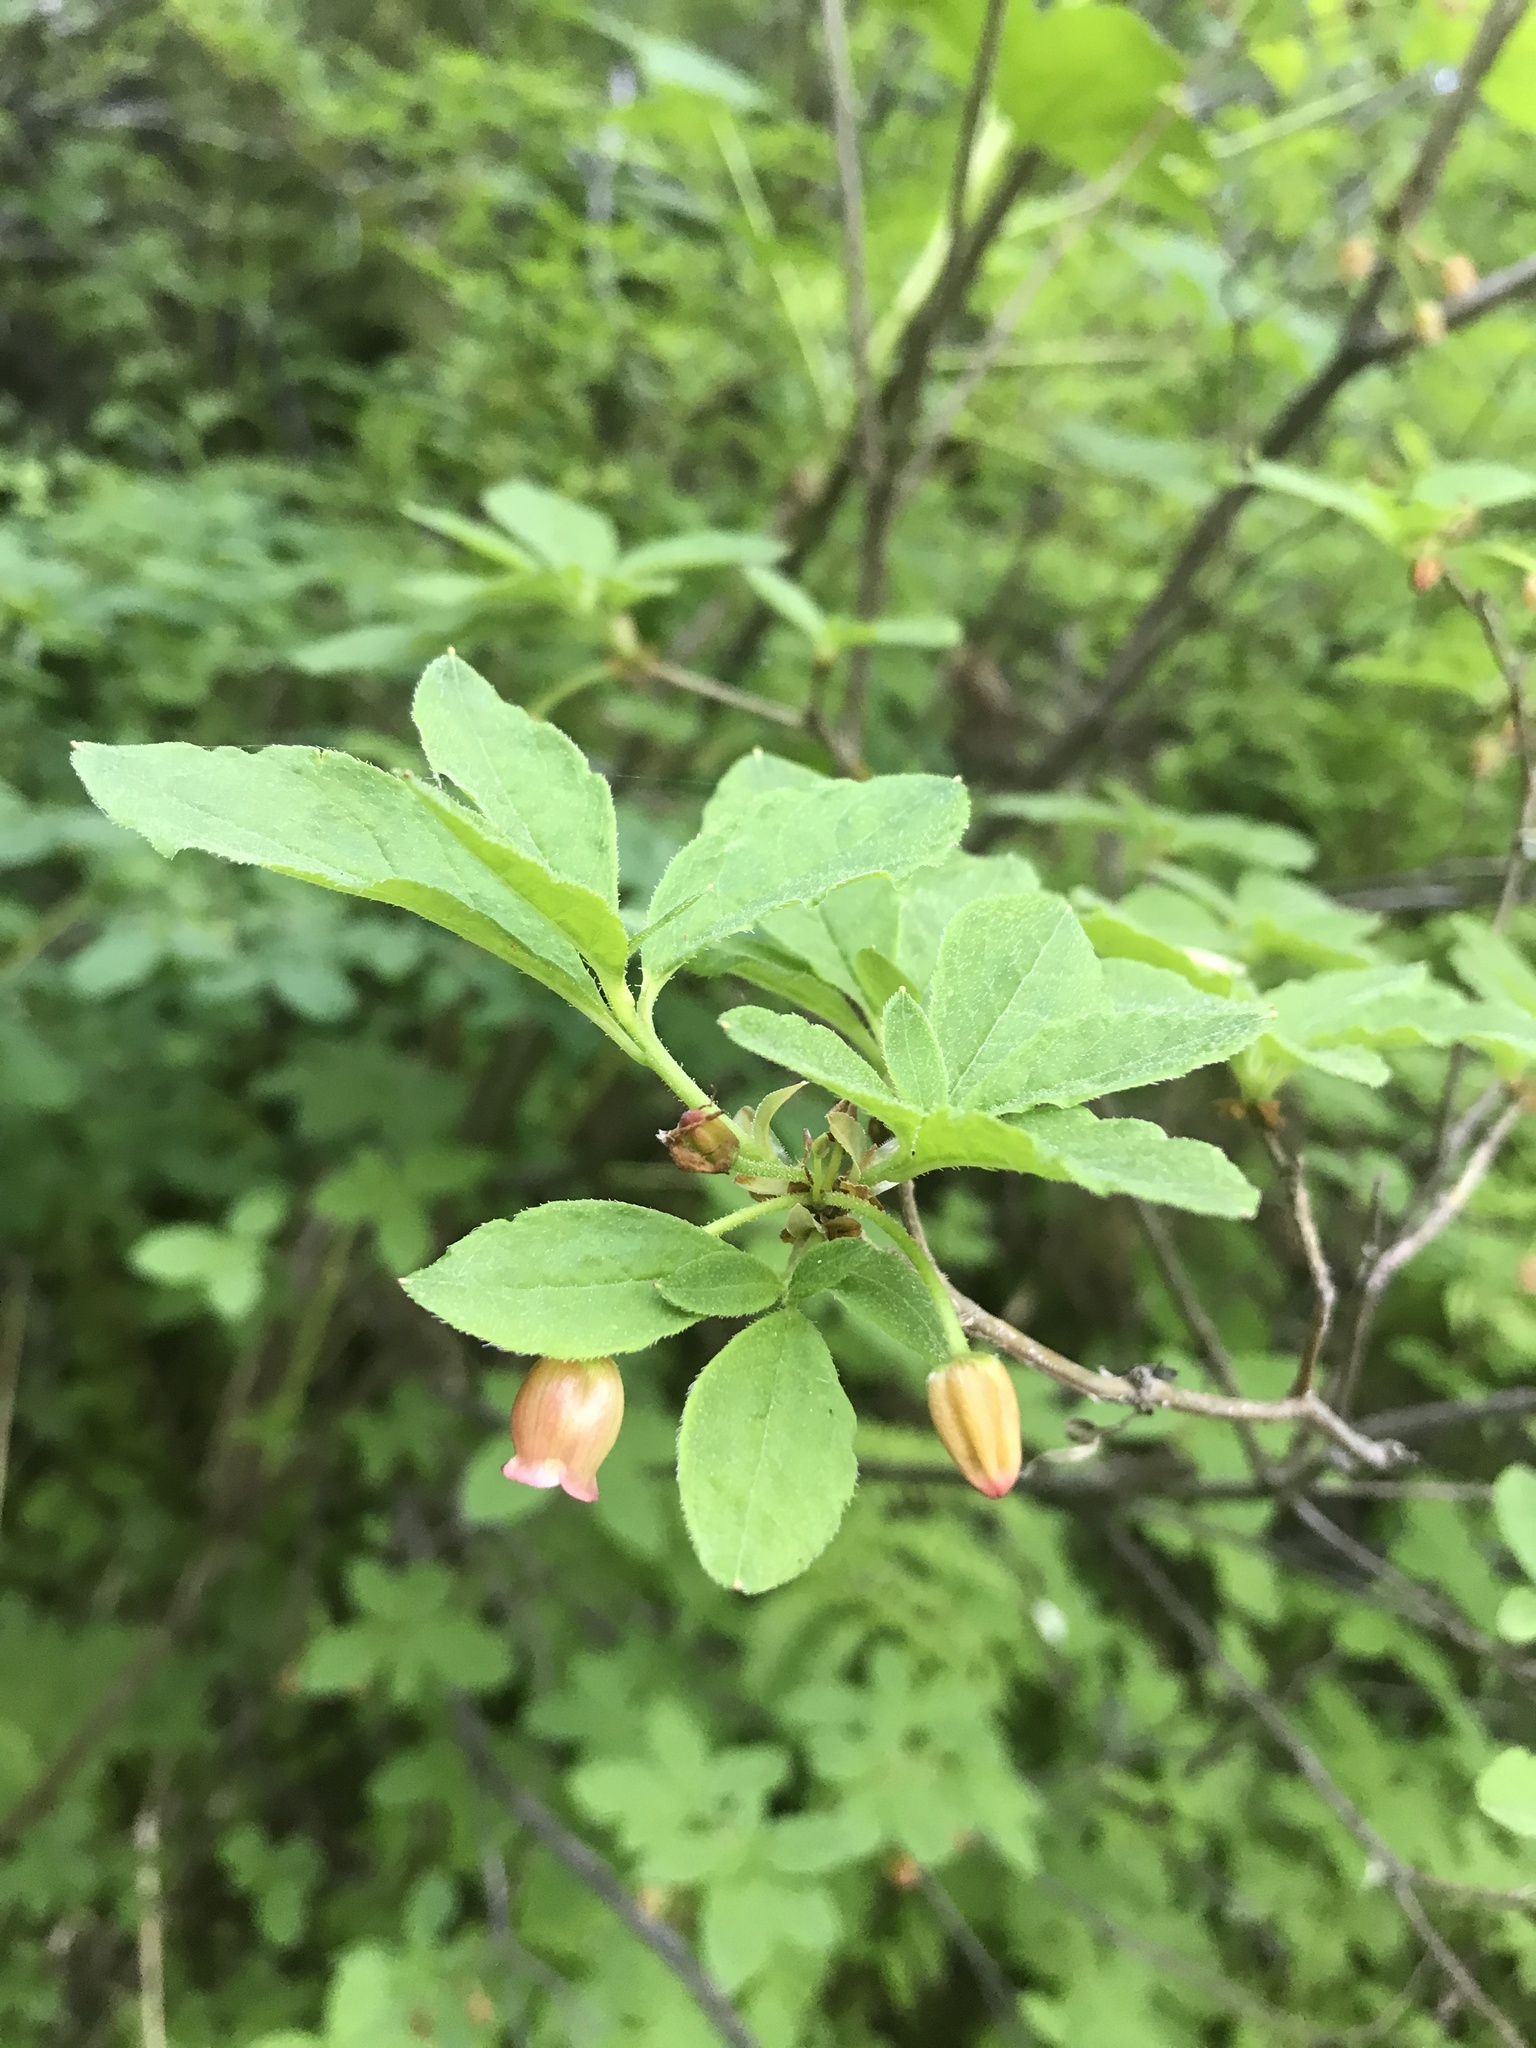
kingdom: Plantae
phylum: Tracheophyta
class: Magnoliopsida
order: Ericales
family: Ericaceae
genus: Rhododendron
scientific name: Rhododendron menziesii
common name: Pacific menziesia
